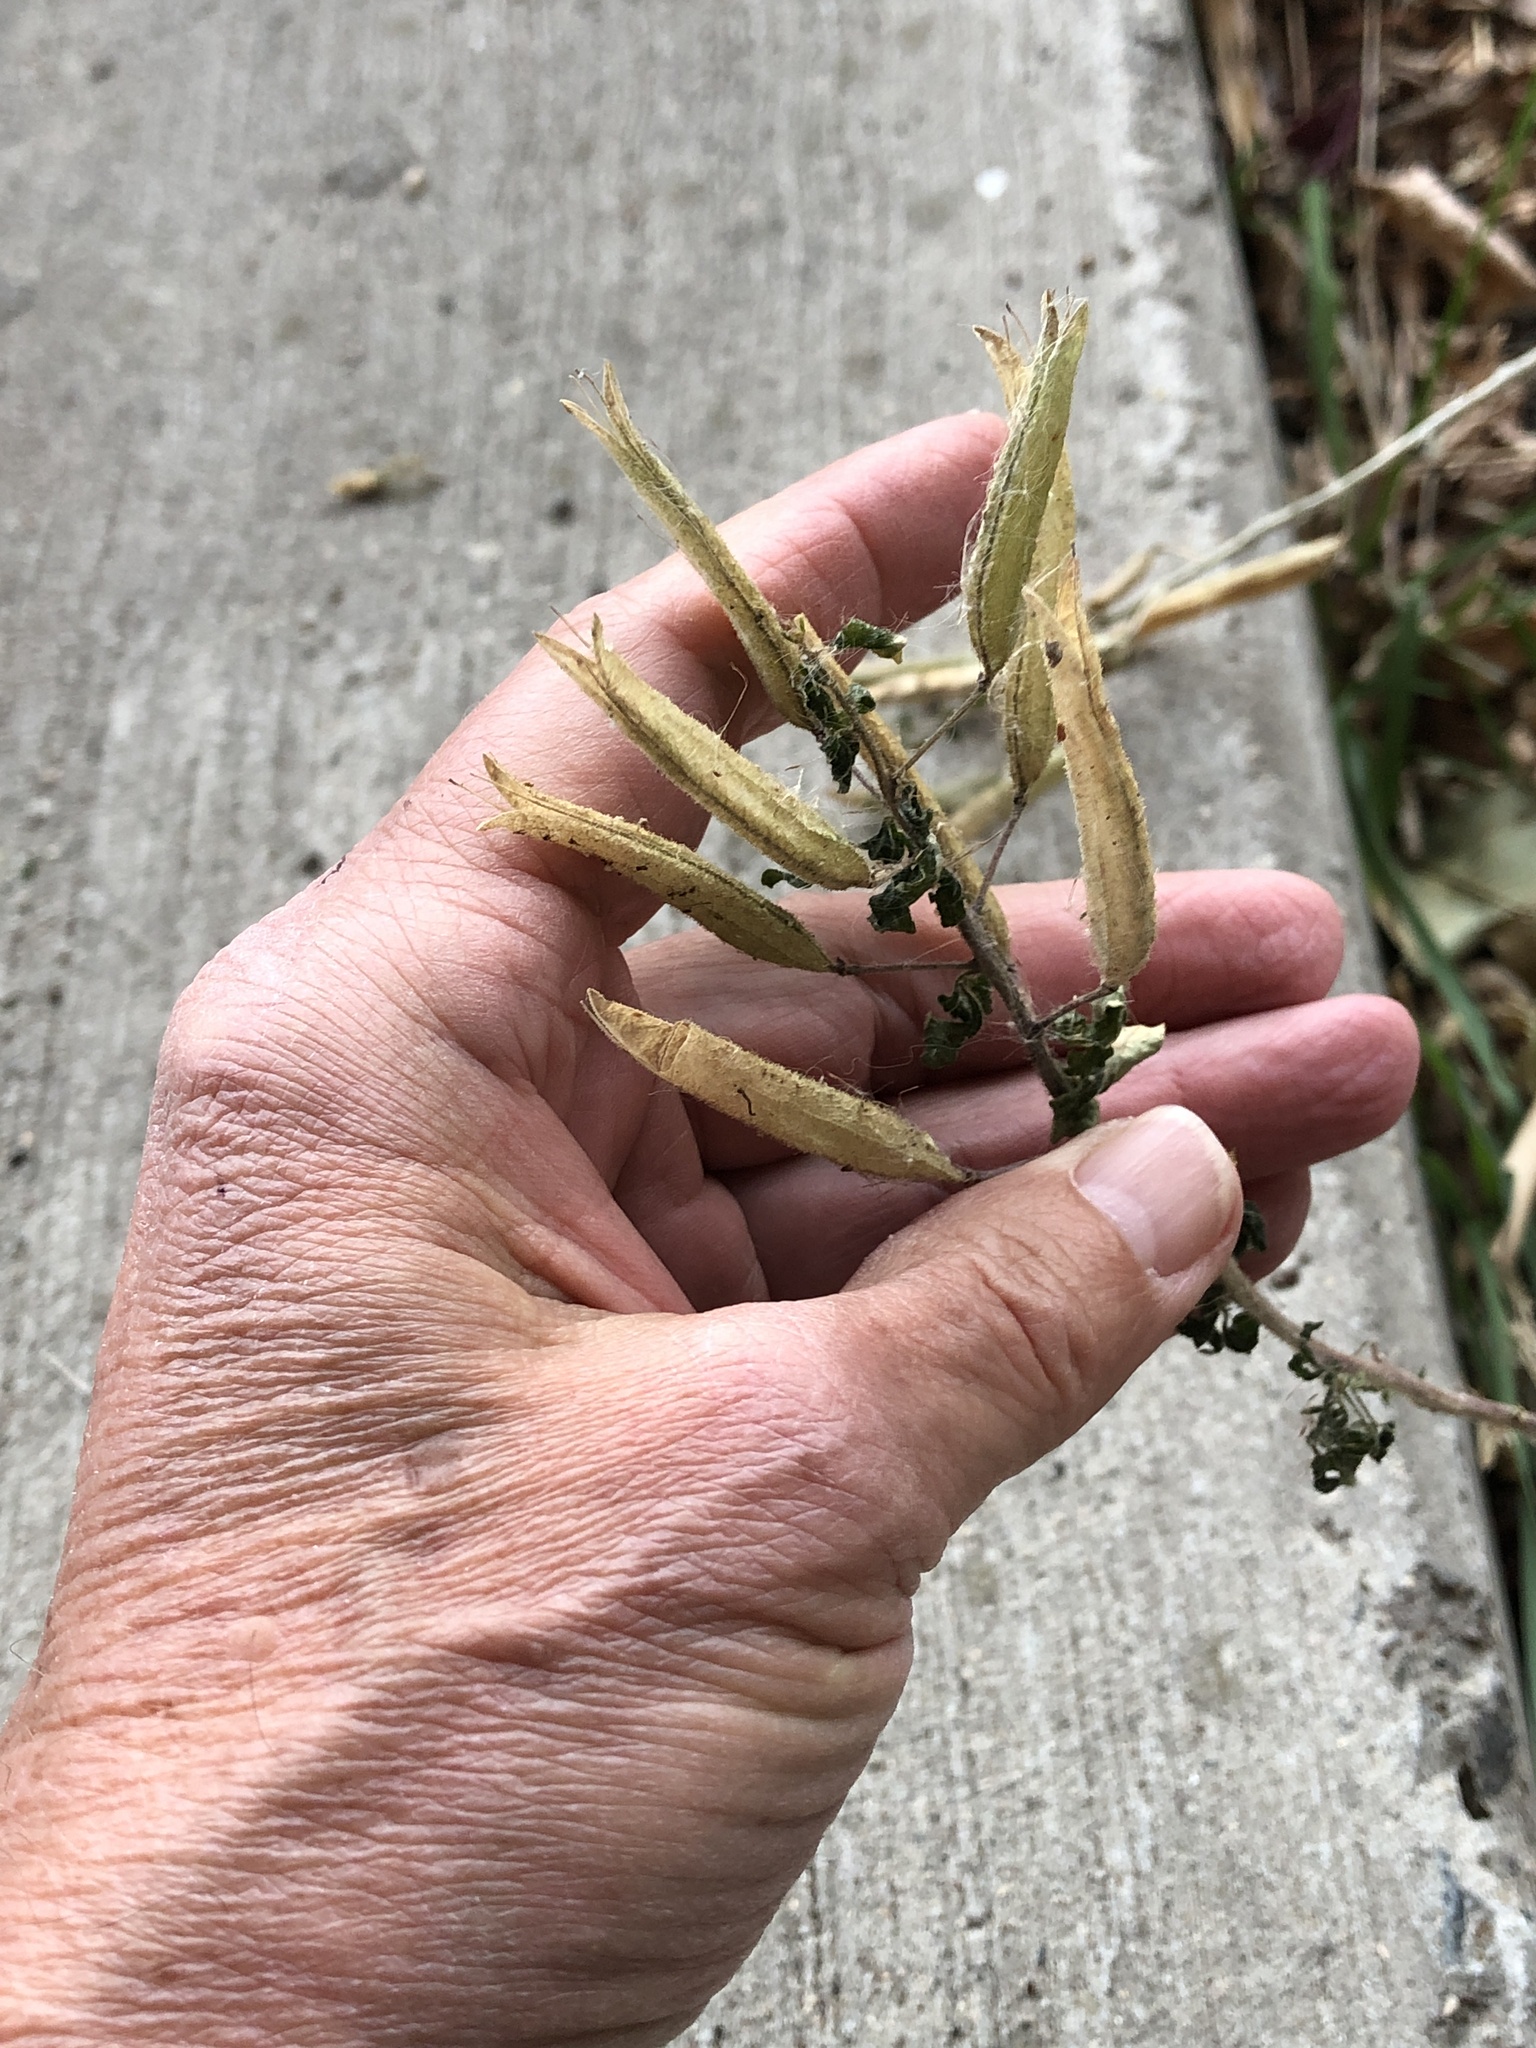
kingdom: Plantae
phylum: Tracheophyta
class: Magnoliopsida
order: Brassicales
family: Cleomaceae
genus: Polanisia
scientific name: Polanisia dodecandra
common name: Clammyweed
